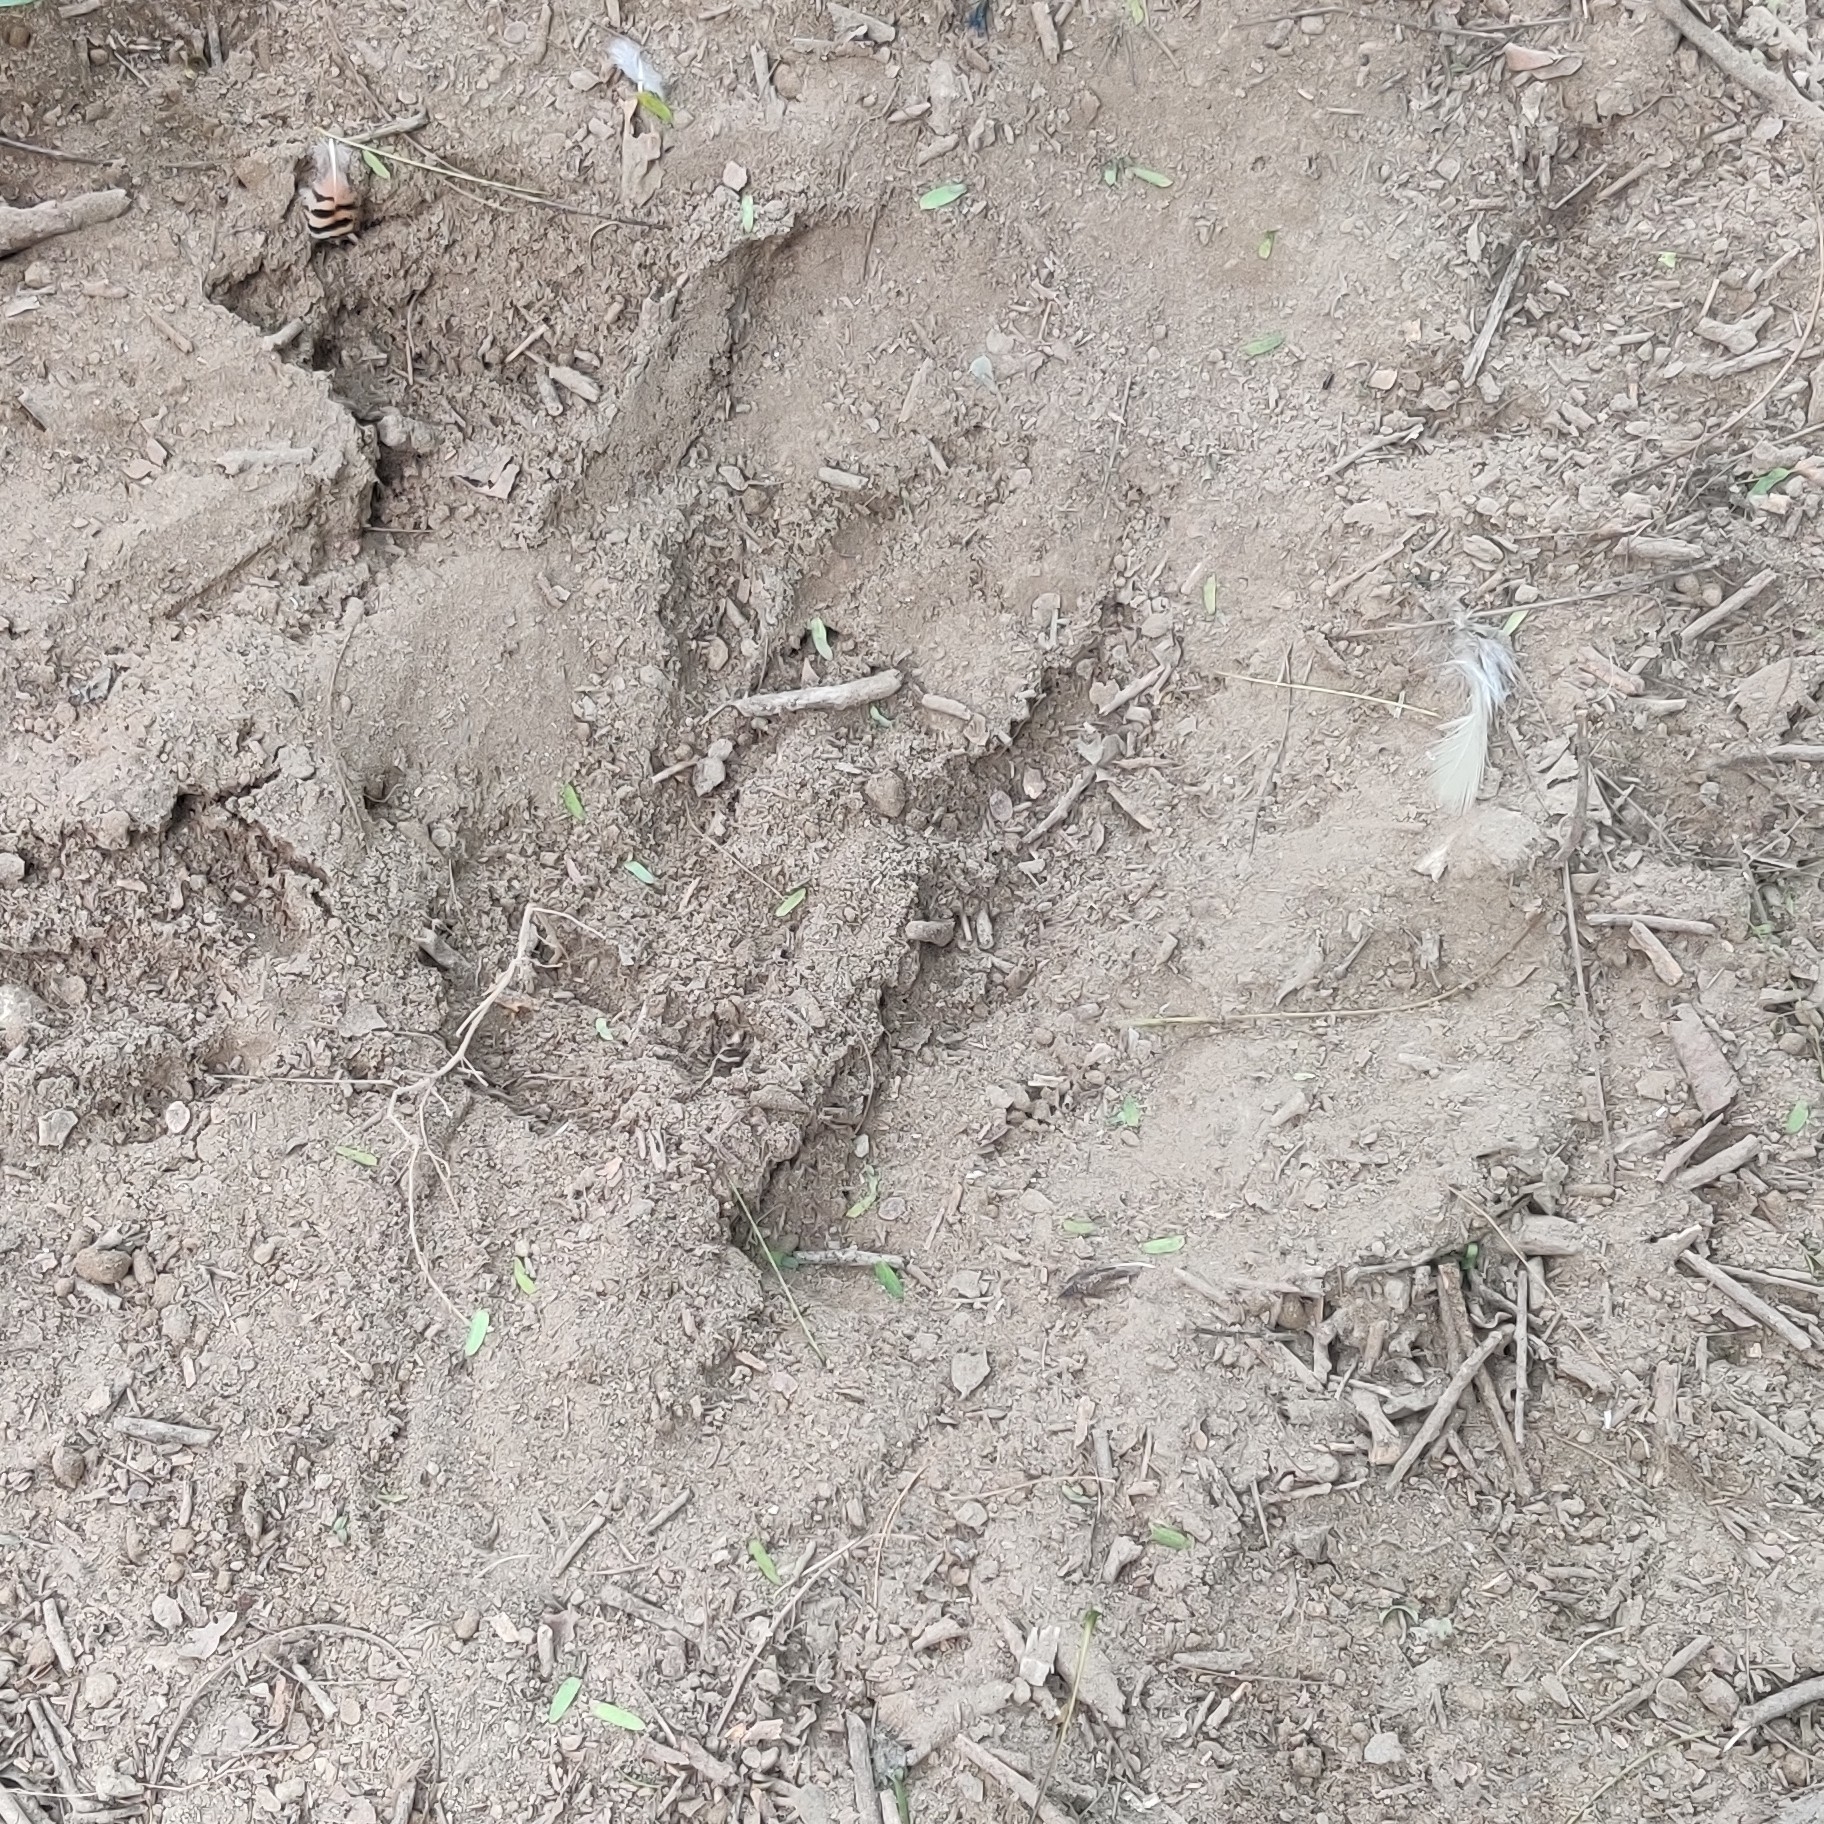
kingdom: Animalia
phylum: Chordata
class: Aves
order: Galliformes
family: Phasianidae
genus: Pavo
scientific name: Pavo cristatus
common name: Indian peafowl
